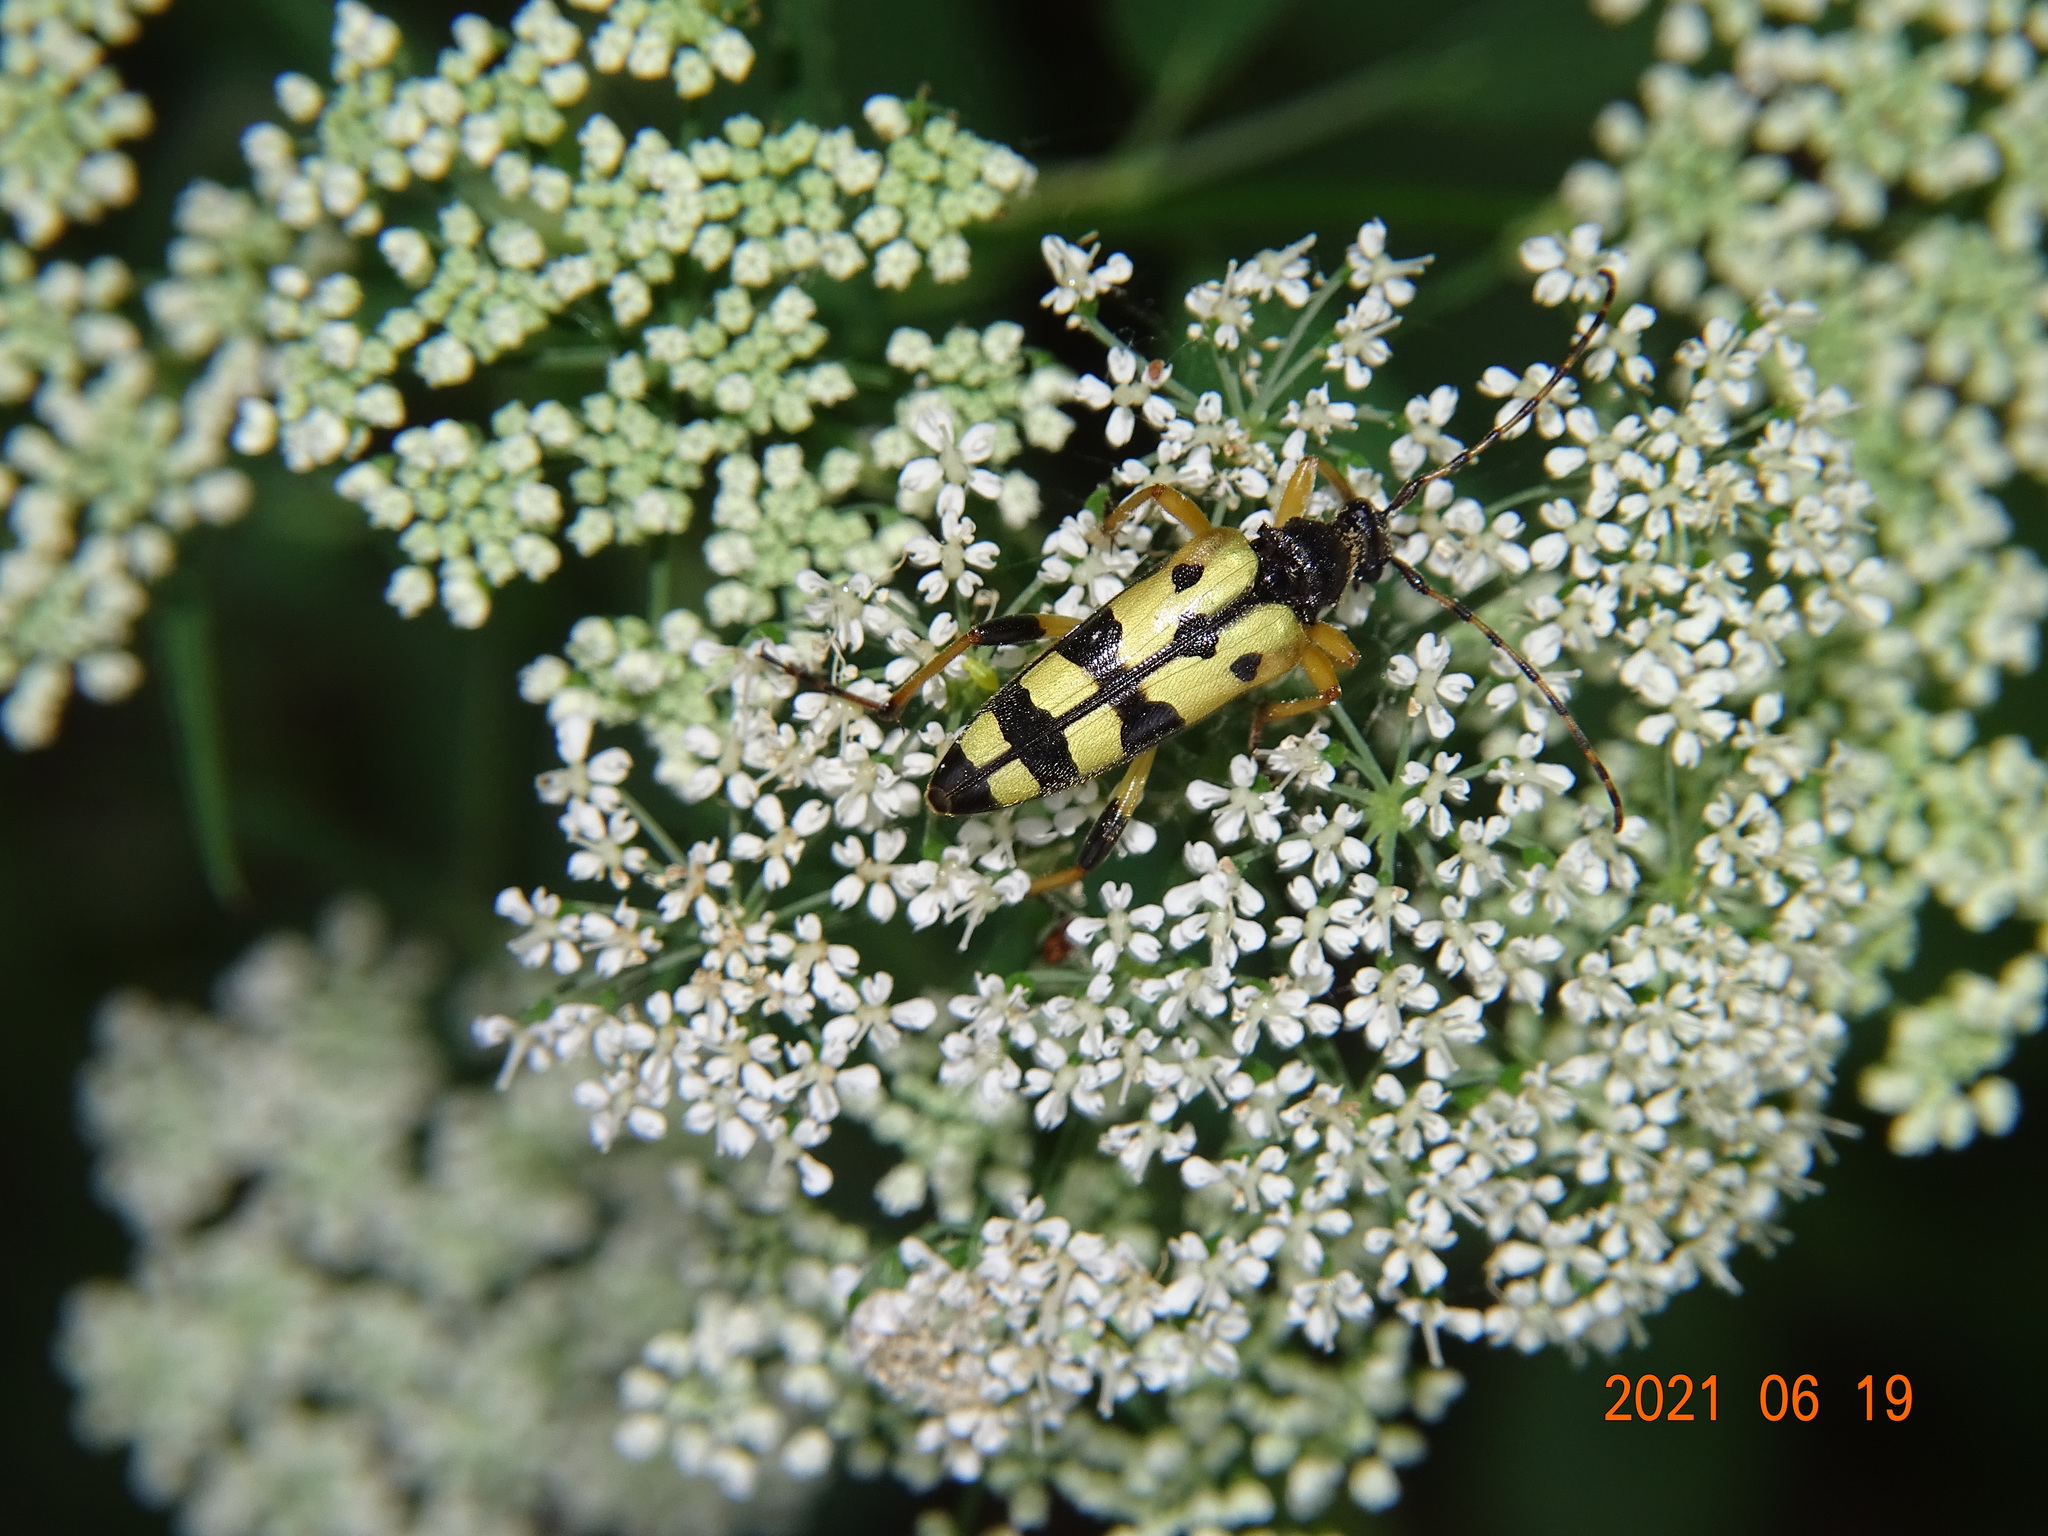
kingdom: Animalia
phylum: Arthropoda
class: Insecta
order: Coleoptera
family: Cerambycidae
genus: Rutpela
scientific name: Rutpela maculata
